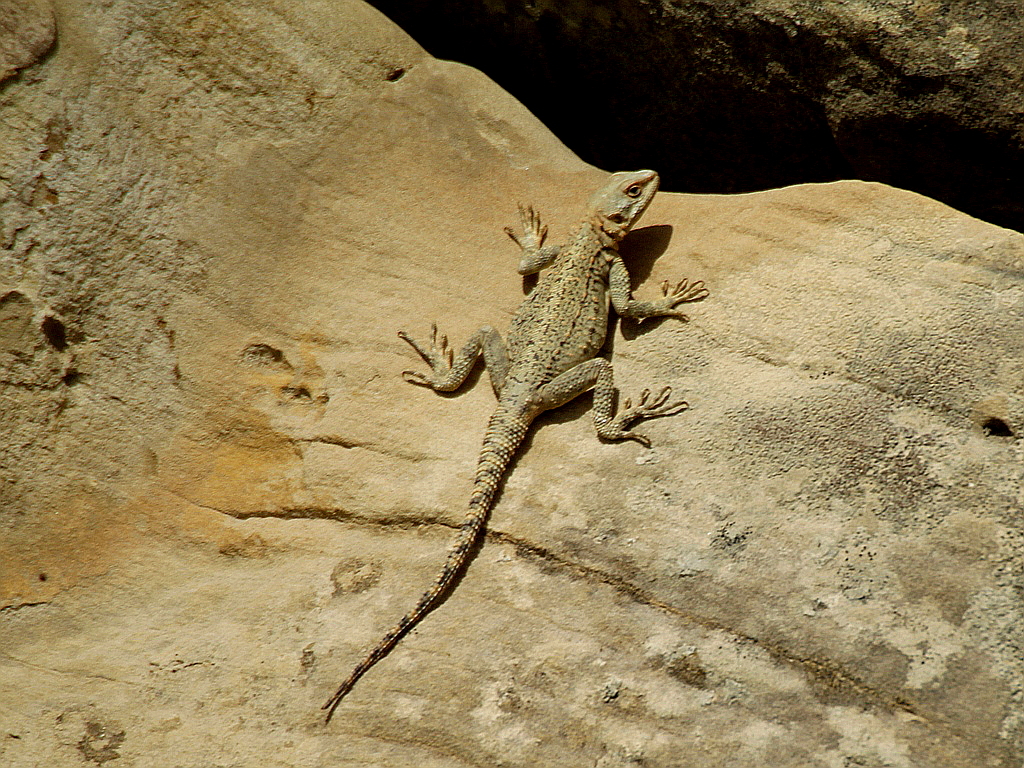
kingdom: Animalia
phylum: Chordata
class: Squamata
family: Agamidae
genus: Paralaudakia
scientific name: Paralaudakia caucasia
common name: Caucasian agama
